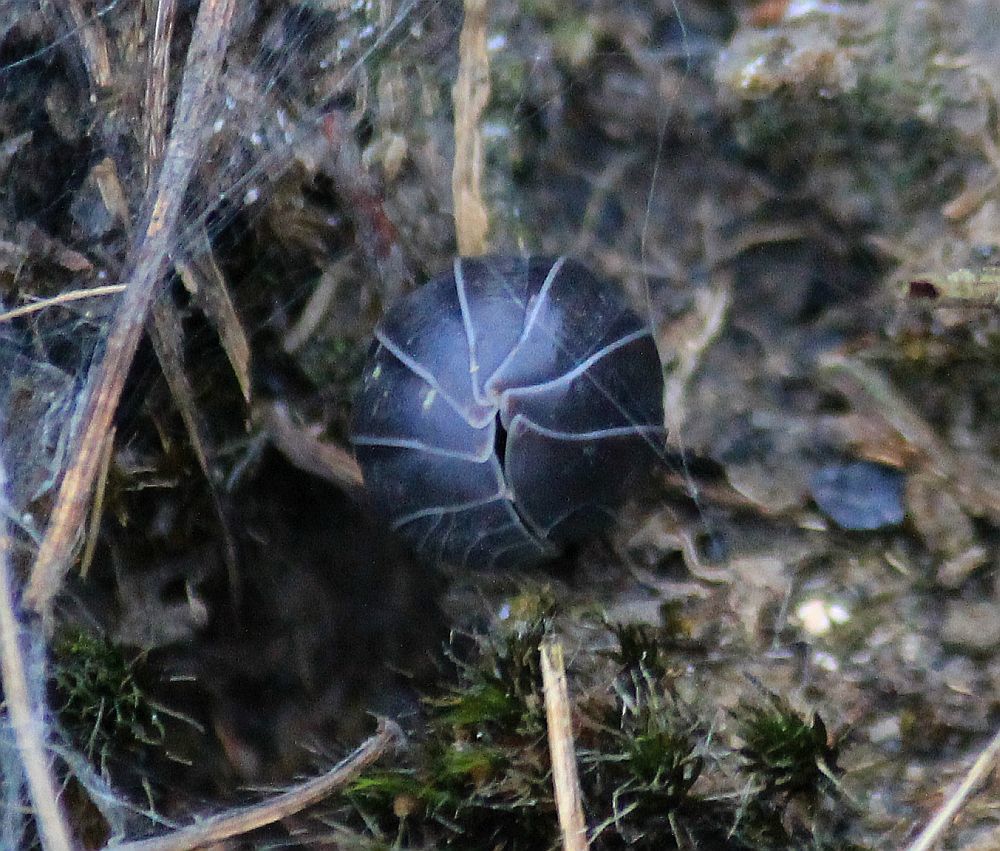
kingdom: Animalia
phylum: Arthropoda
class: Malacostraca
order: Isopoda
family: Armadillidiidae
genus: Armadillidium
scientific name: Armadillidium vulgare
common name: Common pill woodlouse
